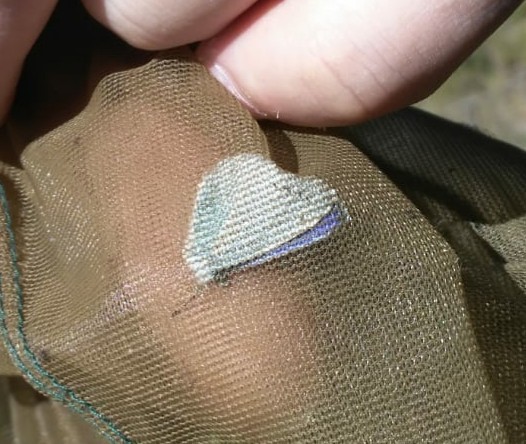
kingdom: Animalia
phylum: Arthropoda
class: Insecta
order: Lepidoptera
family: Lycaenidae
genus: Celastrina
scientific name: Celastrina argiolus
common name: Holly blue
